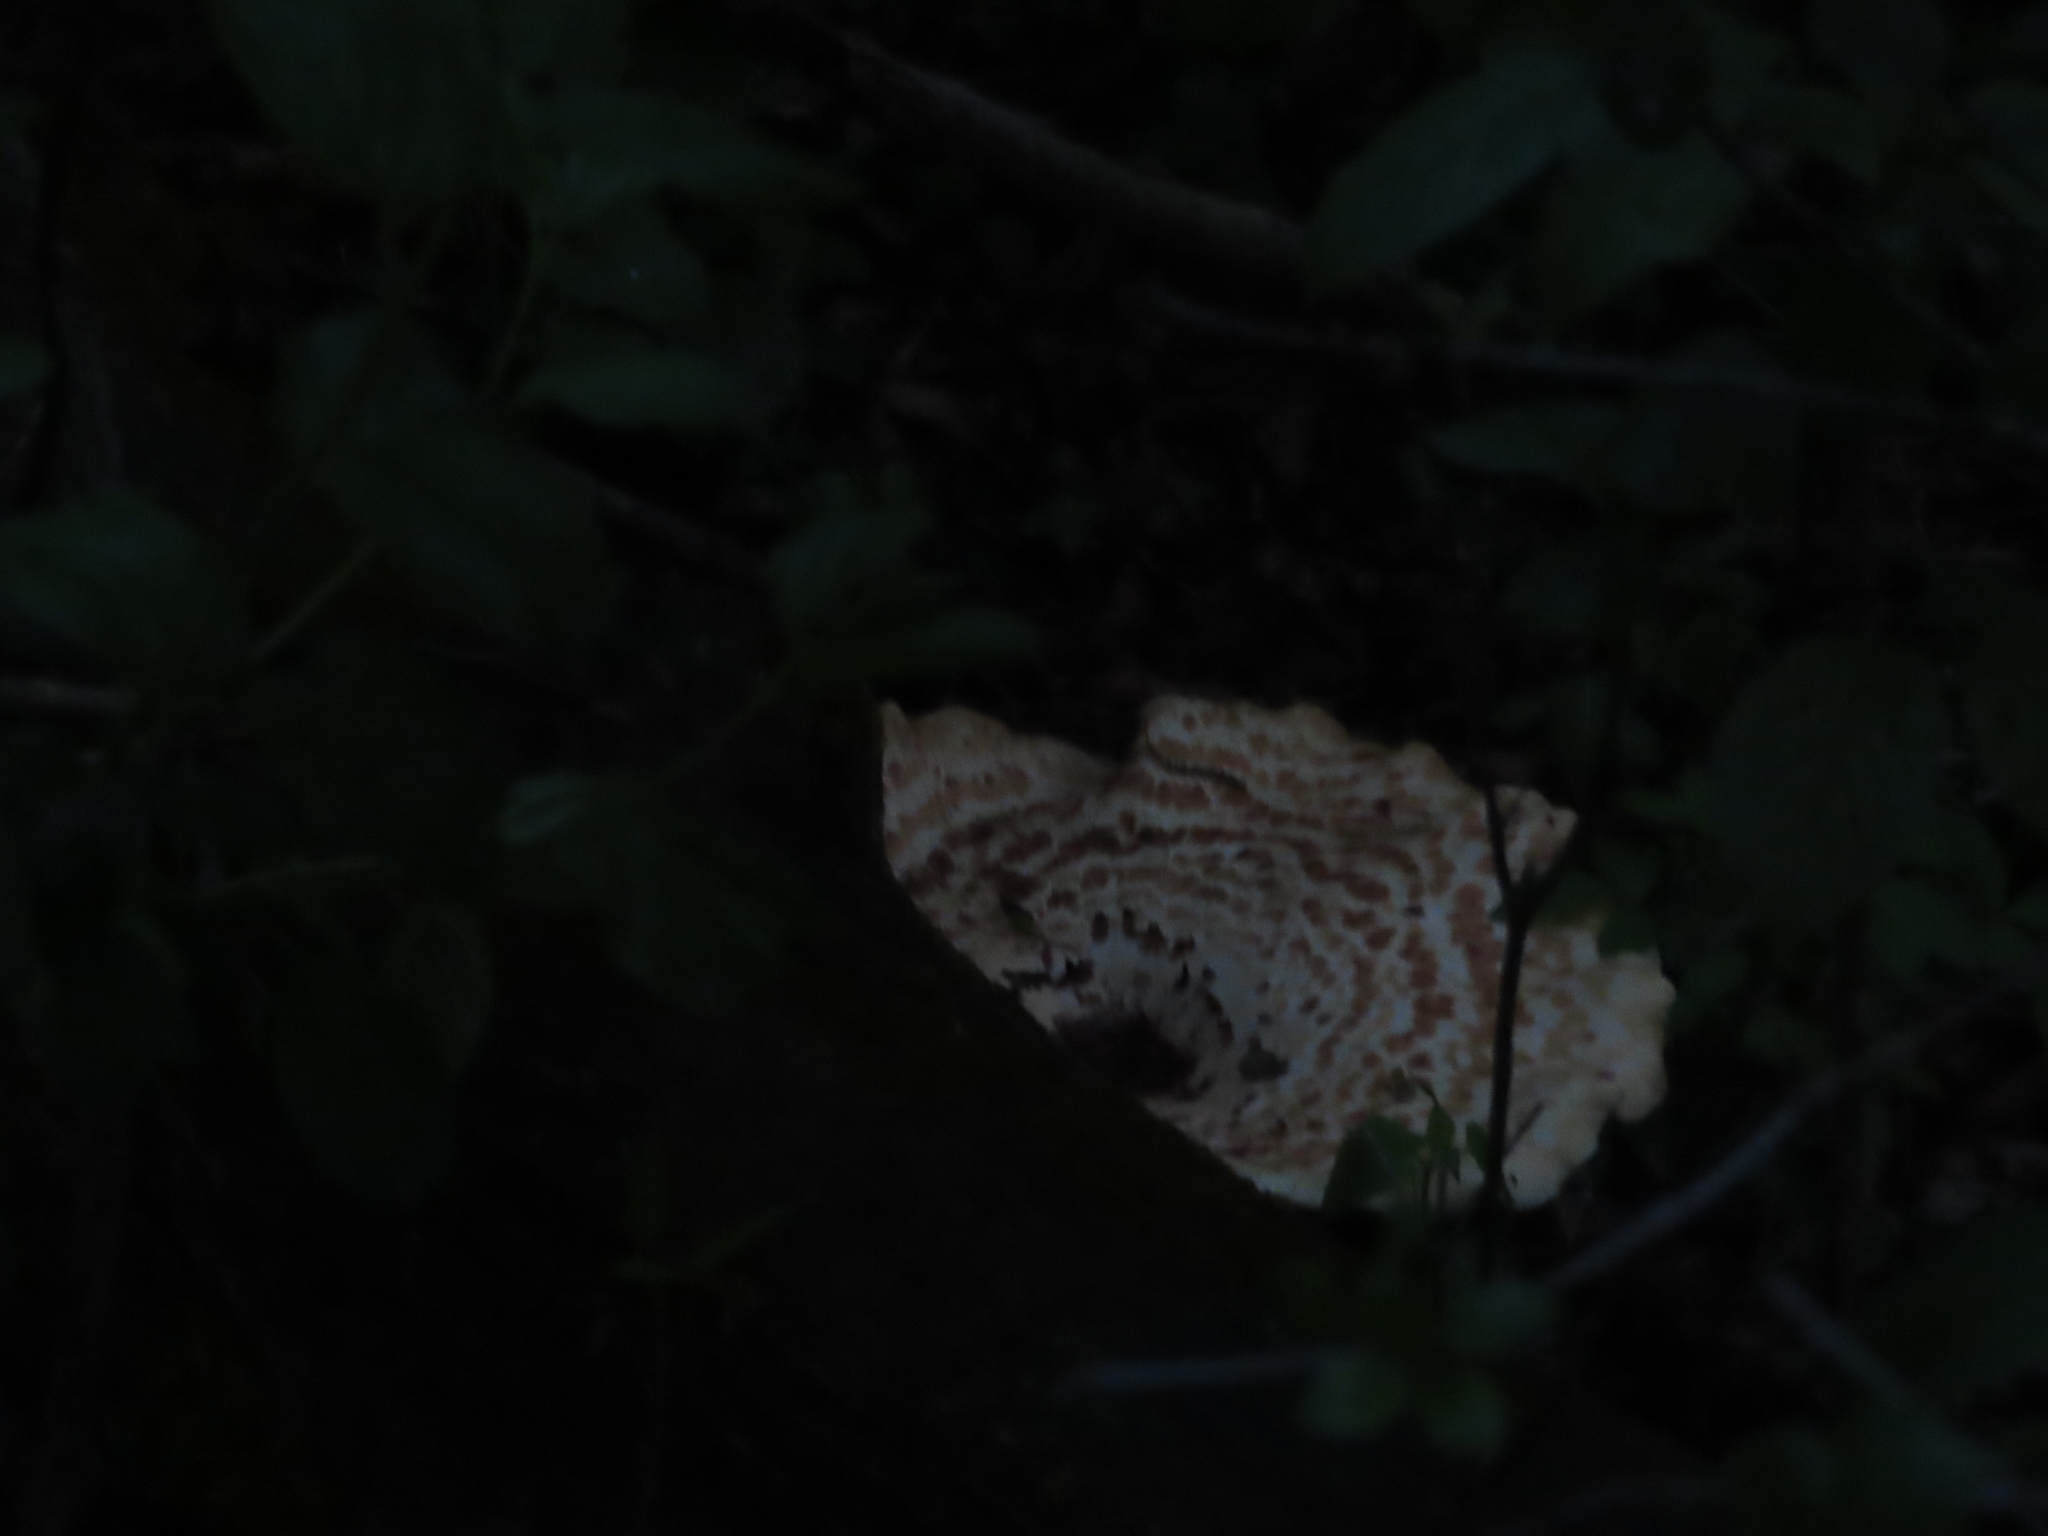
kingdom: Fungi
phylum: Basidiomycota
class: Agaricomycetes
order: Polyporales
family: Polyporaceae
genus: Cerioporus
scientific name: Cerioporus squamosus
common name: Dryad's saddle
